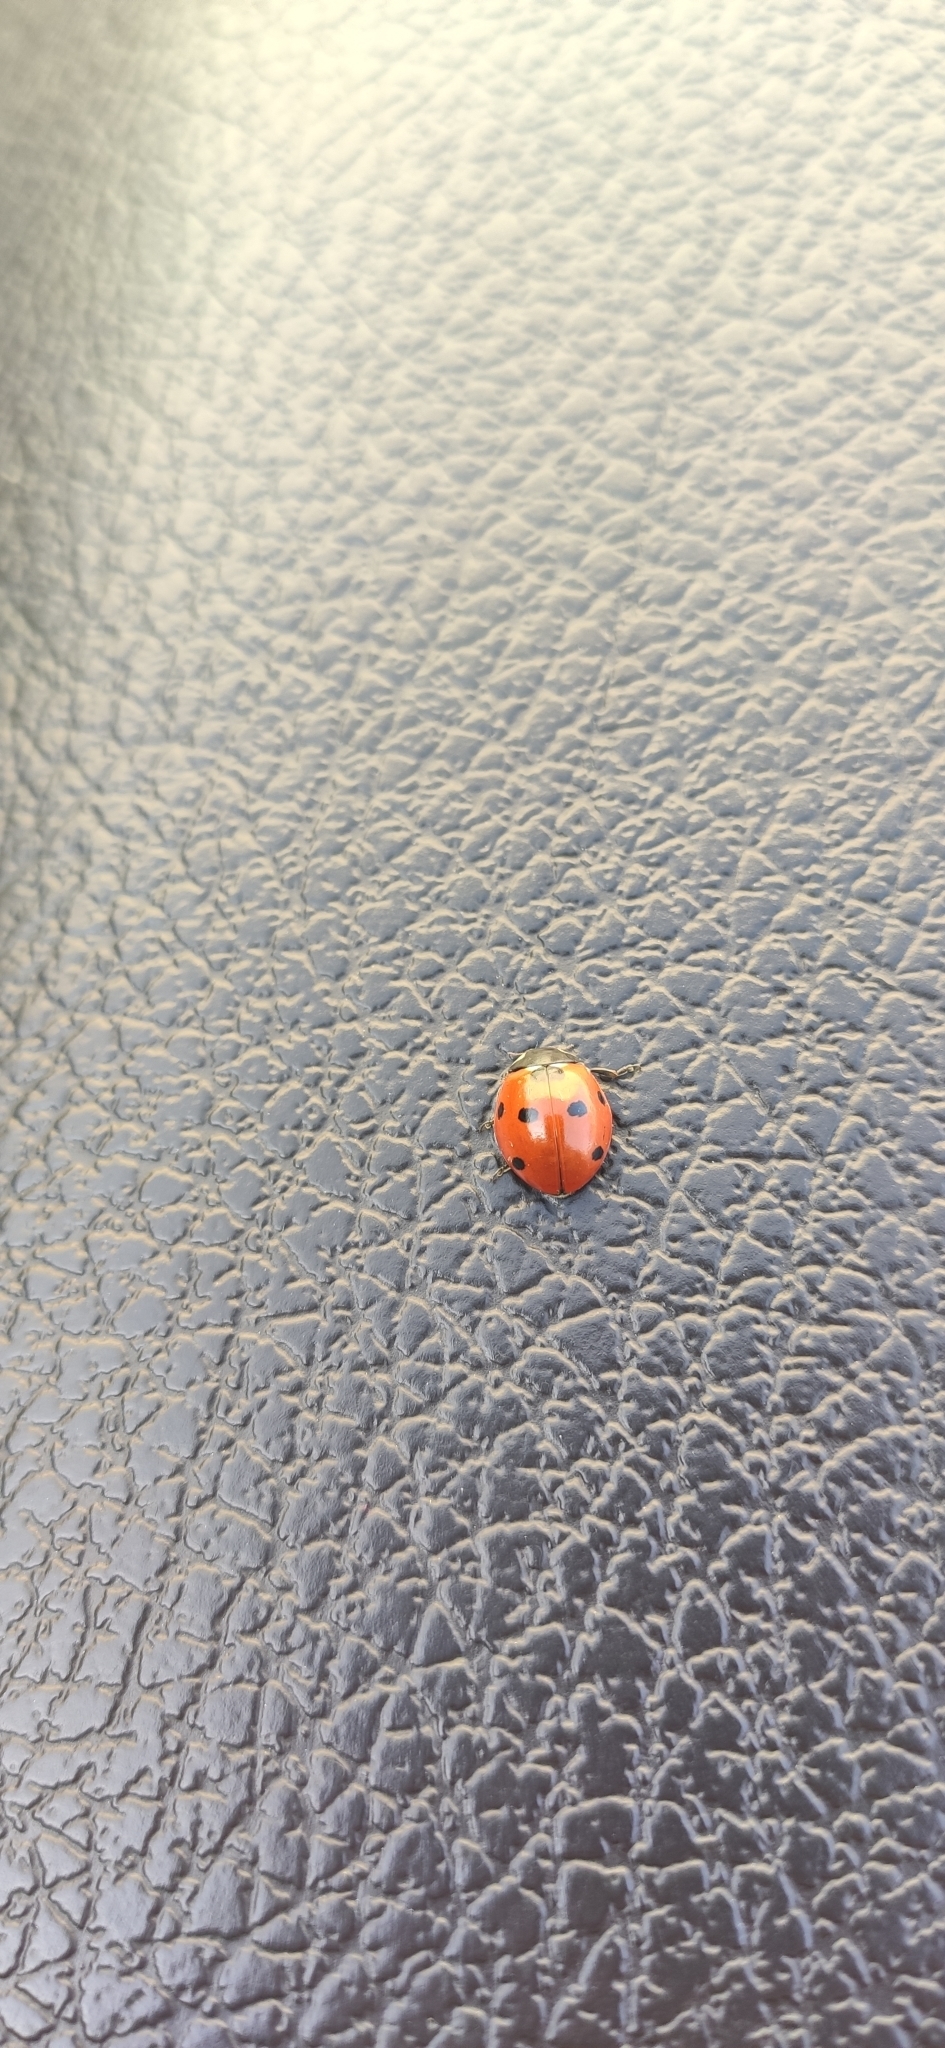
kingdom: Animalia
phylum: Arthropoda
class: Insecta
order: Coleoptera
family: Coccinellidae
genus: Coccinella
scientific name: Coccinella septempunctata
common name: Sevenspotted lady beetle
